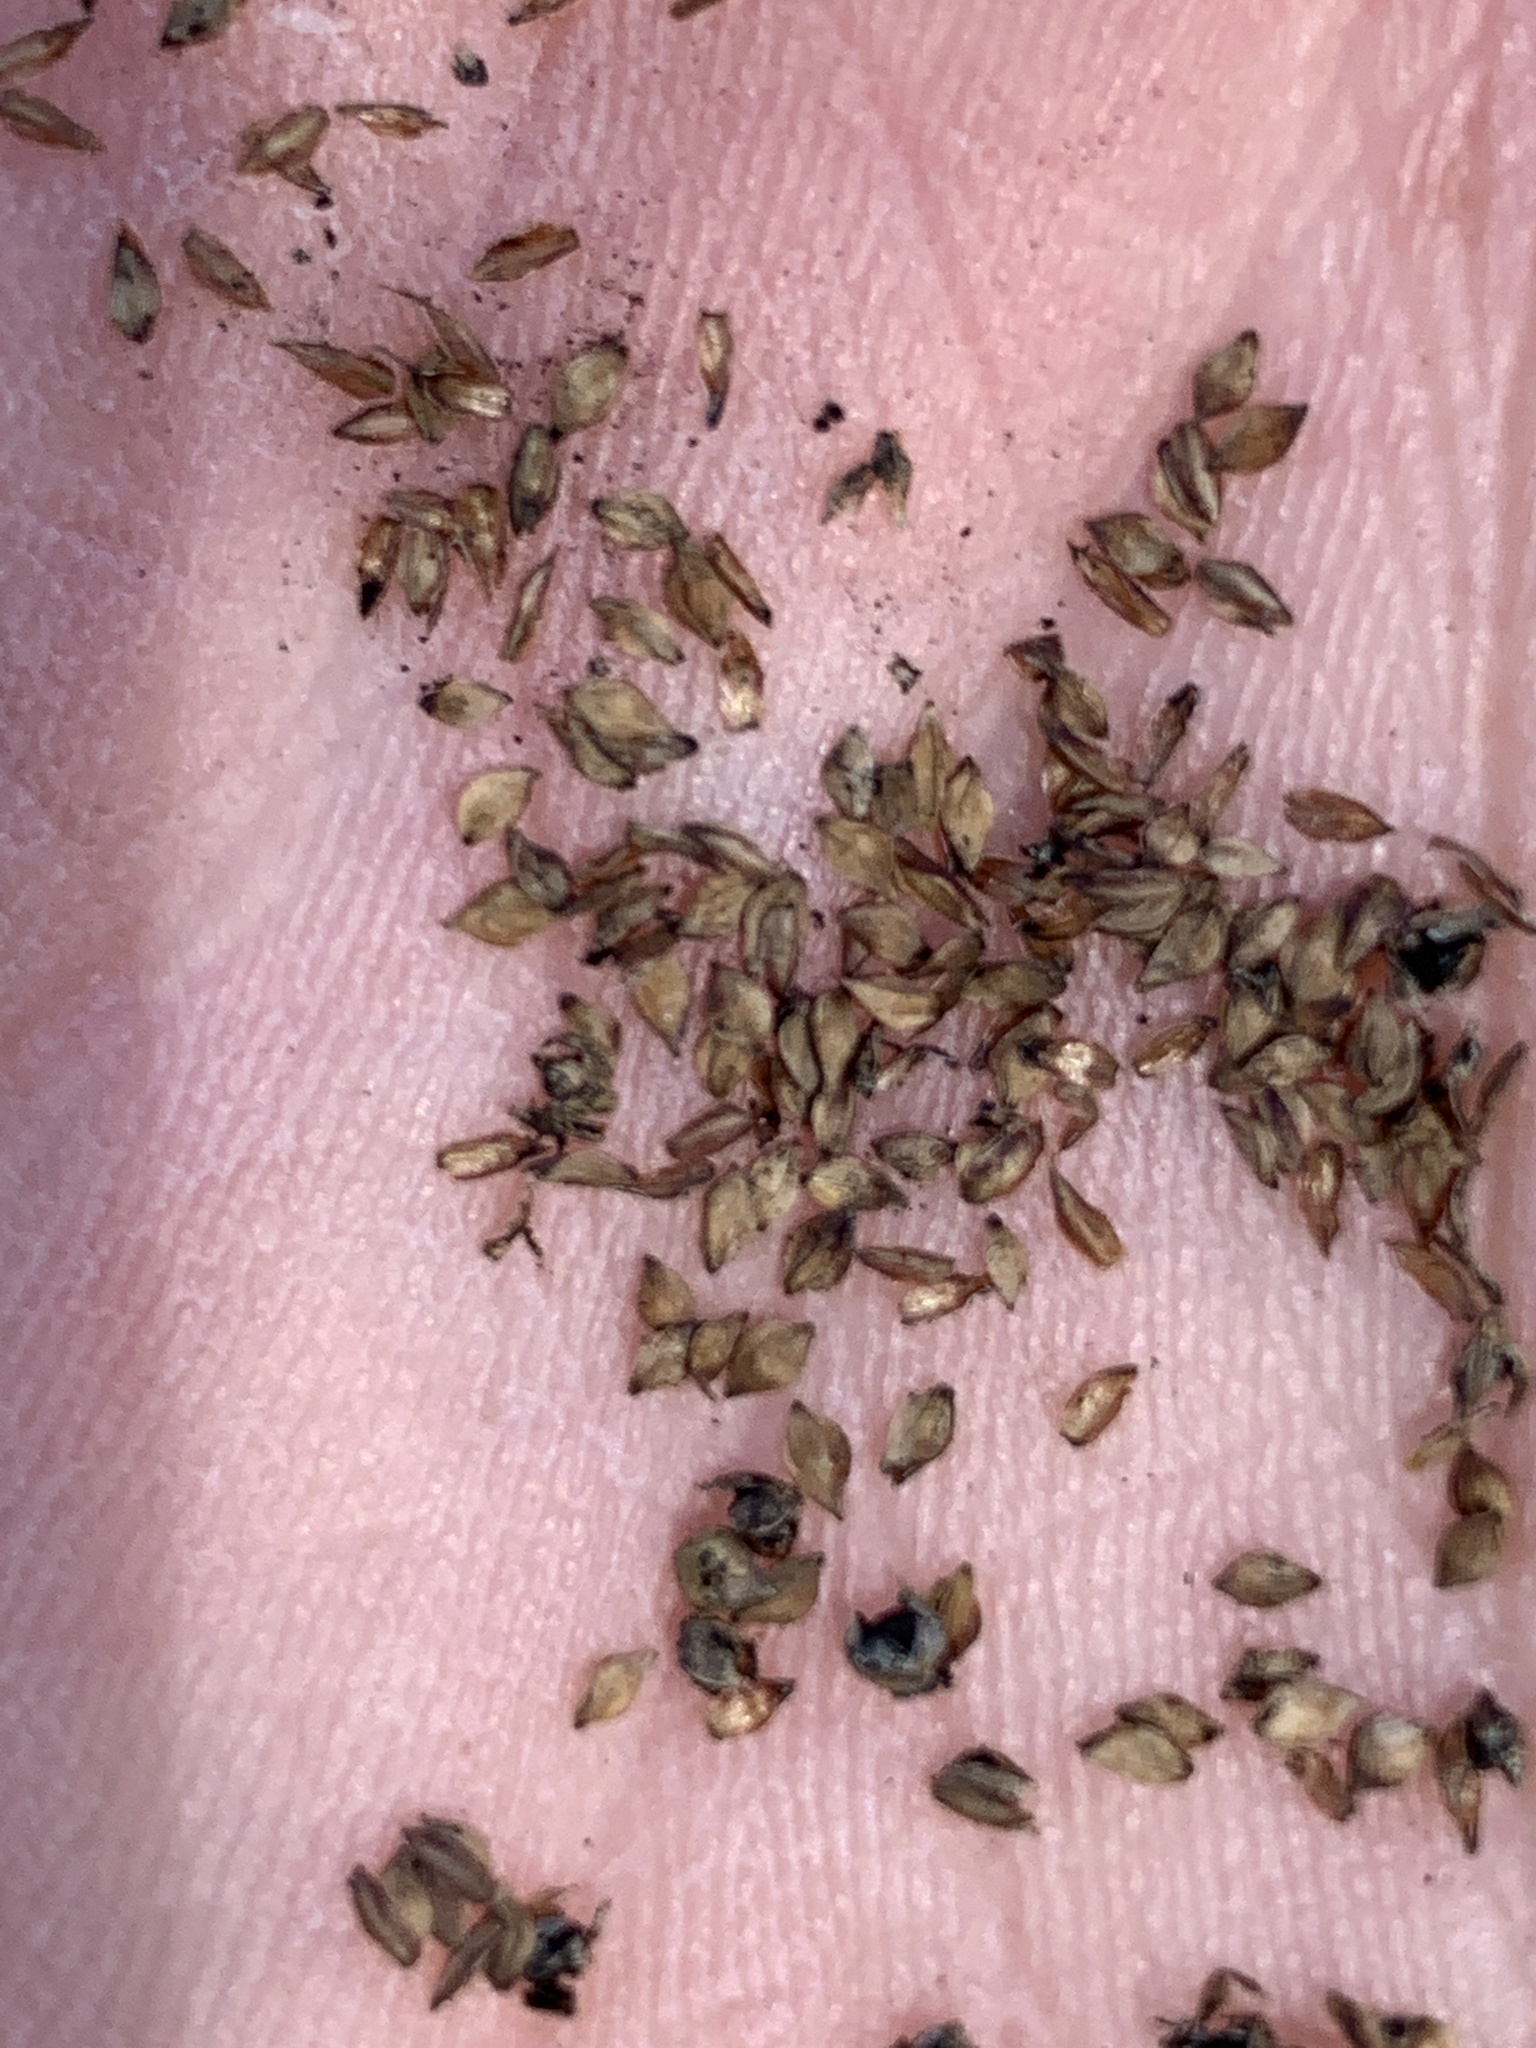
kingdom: Plantae
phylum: Tracheophyta
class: Liliopsida
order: Poales
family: Cyperaceae
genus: Carex
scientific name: Carex stricta
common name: Hummock sedge
